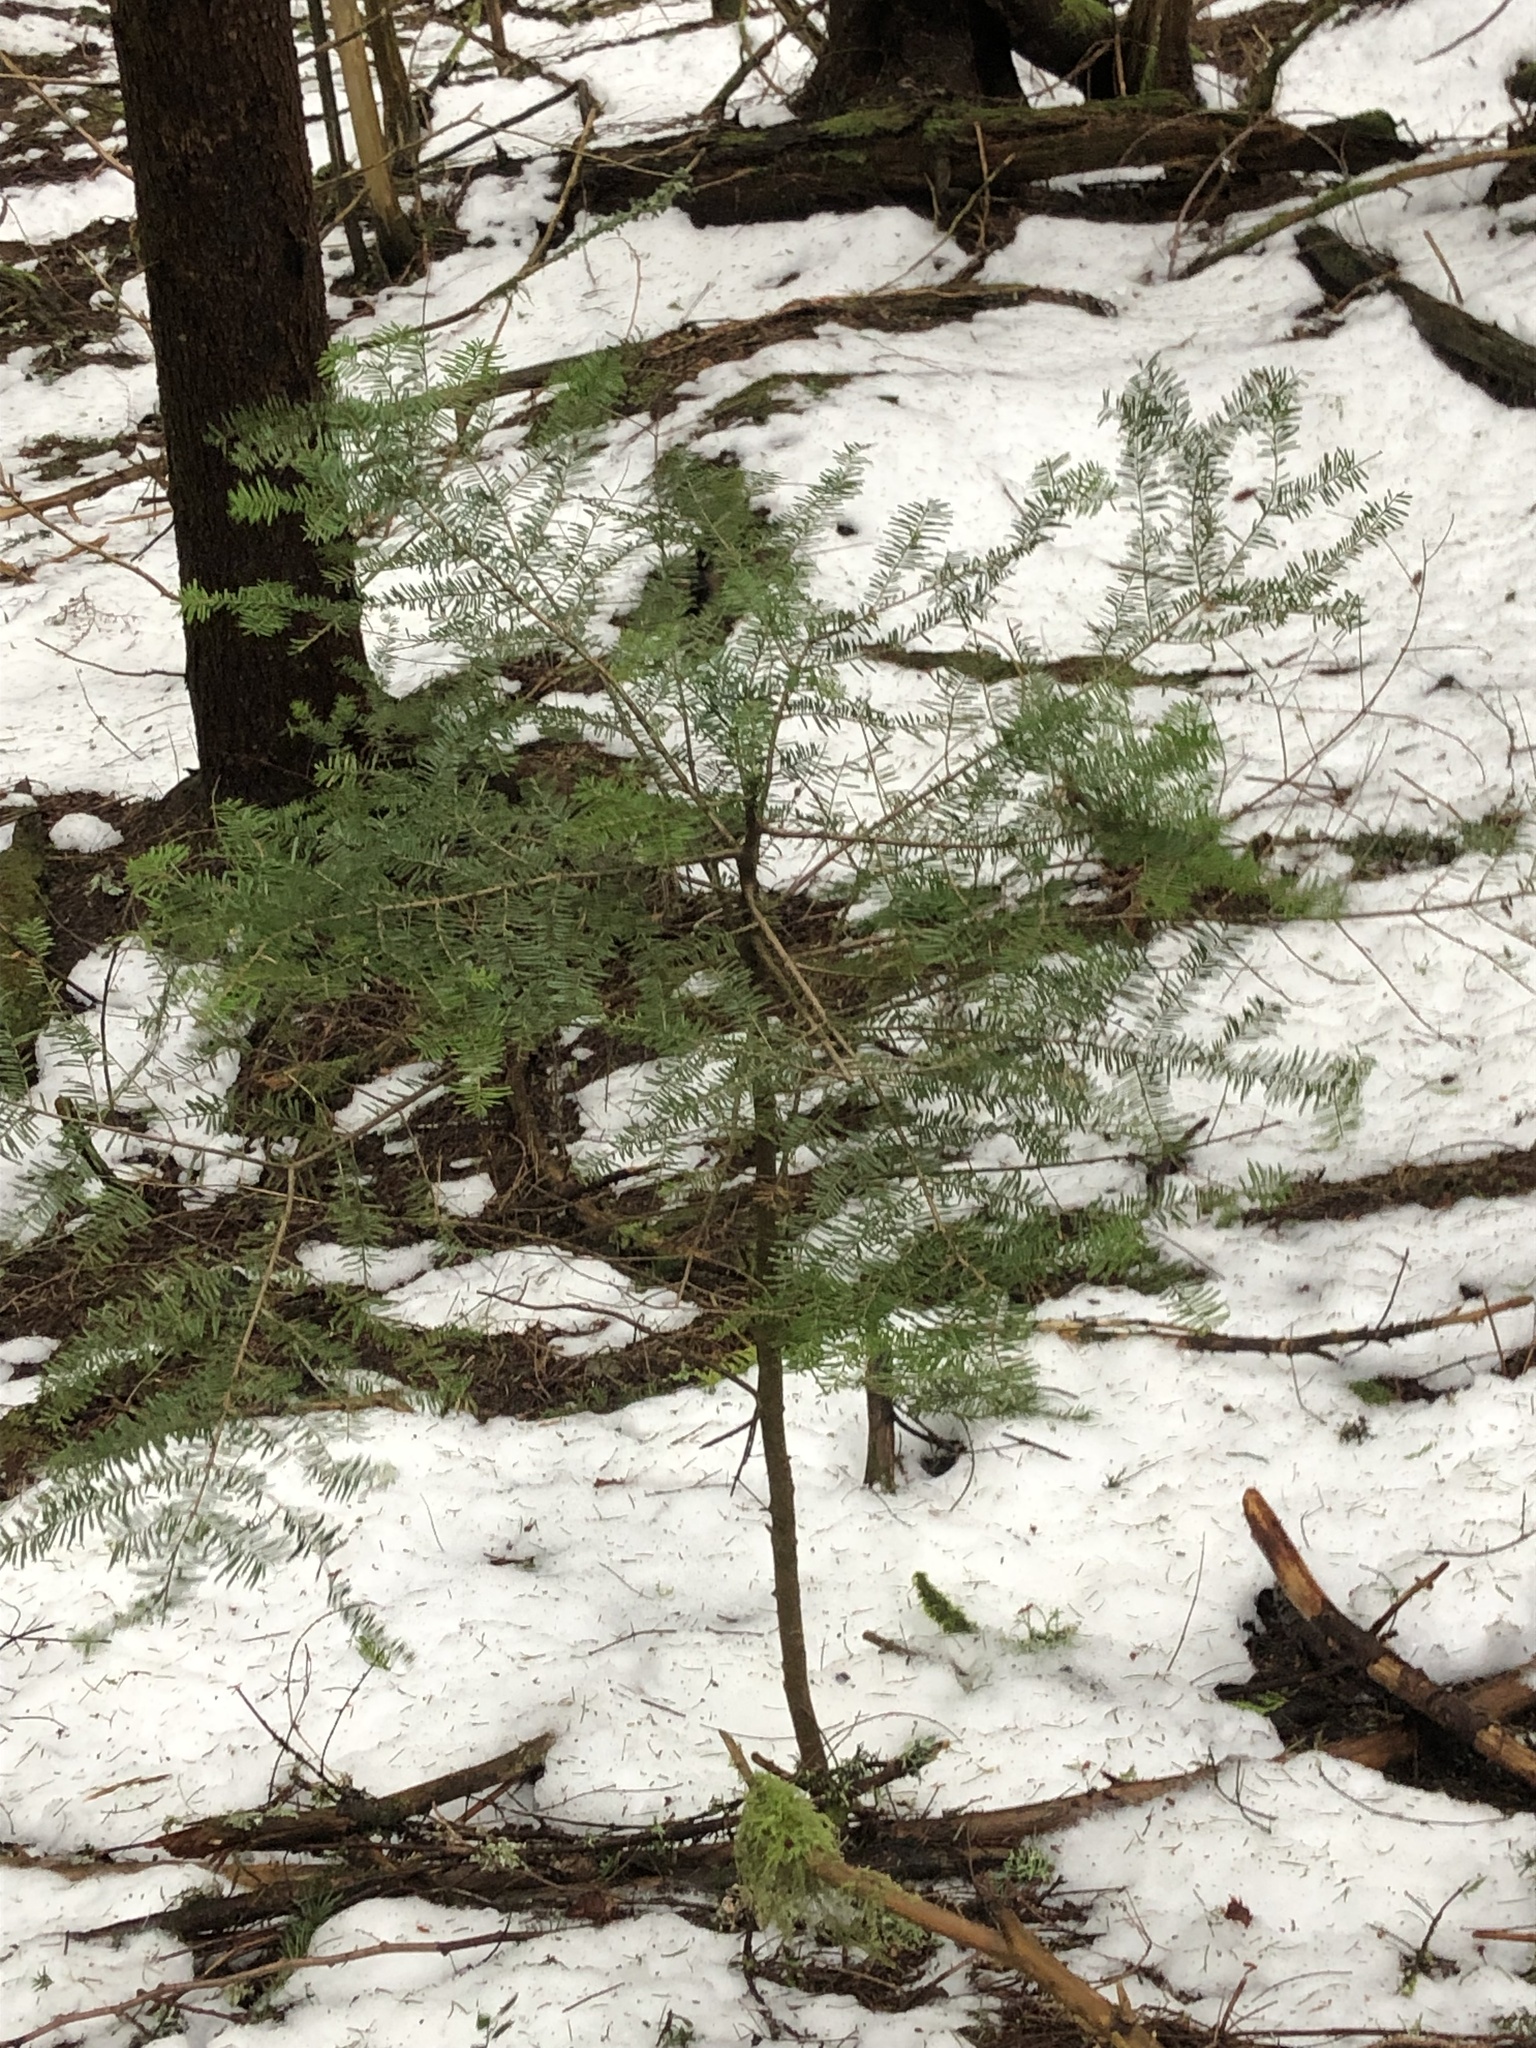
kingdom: Plantae
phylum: Tracheophyta
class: Pinopsida
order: Pinales
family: Pinaceae
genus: Abies
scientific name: Abies amabilis
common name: Pacific silver fir
